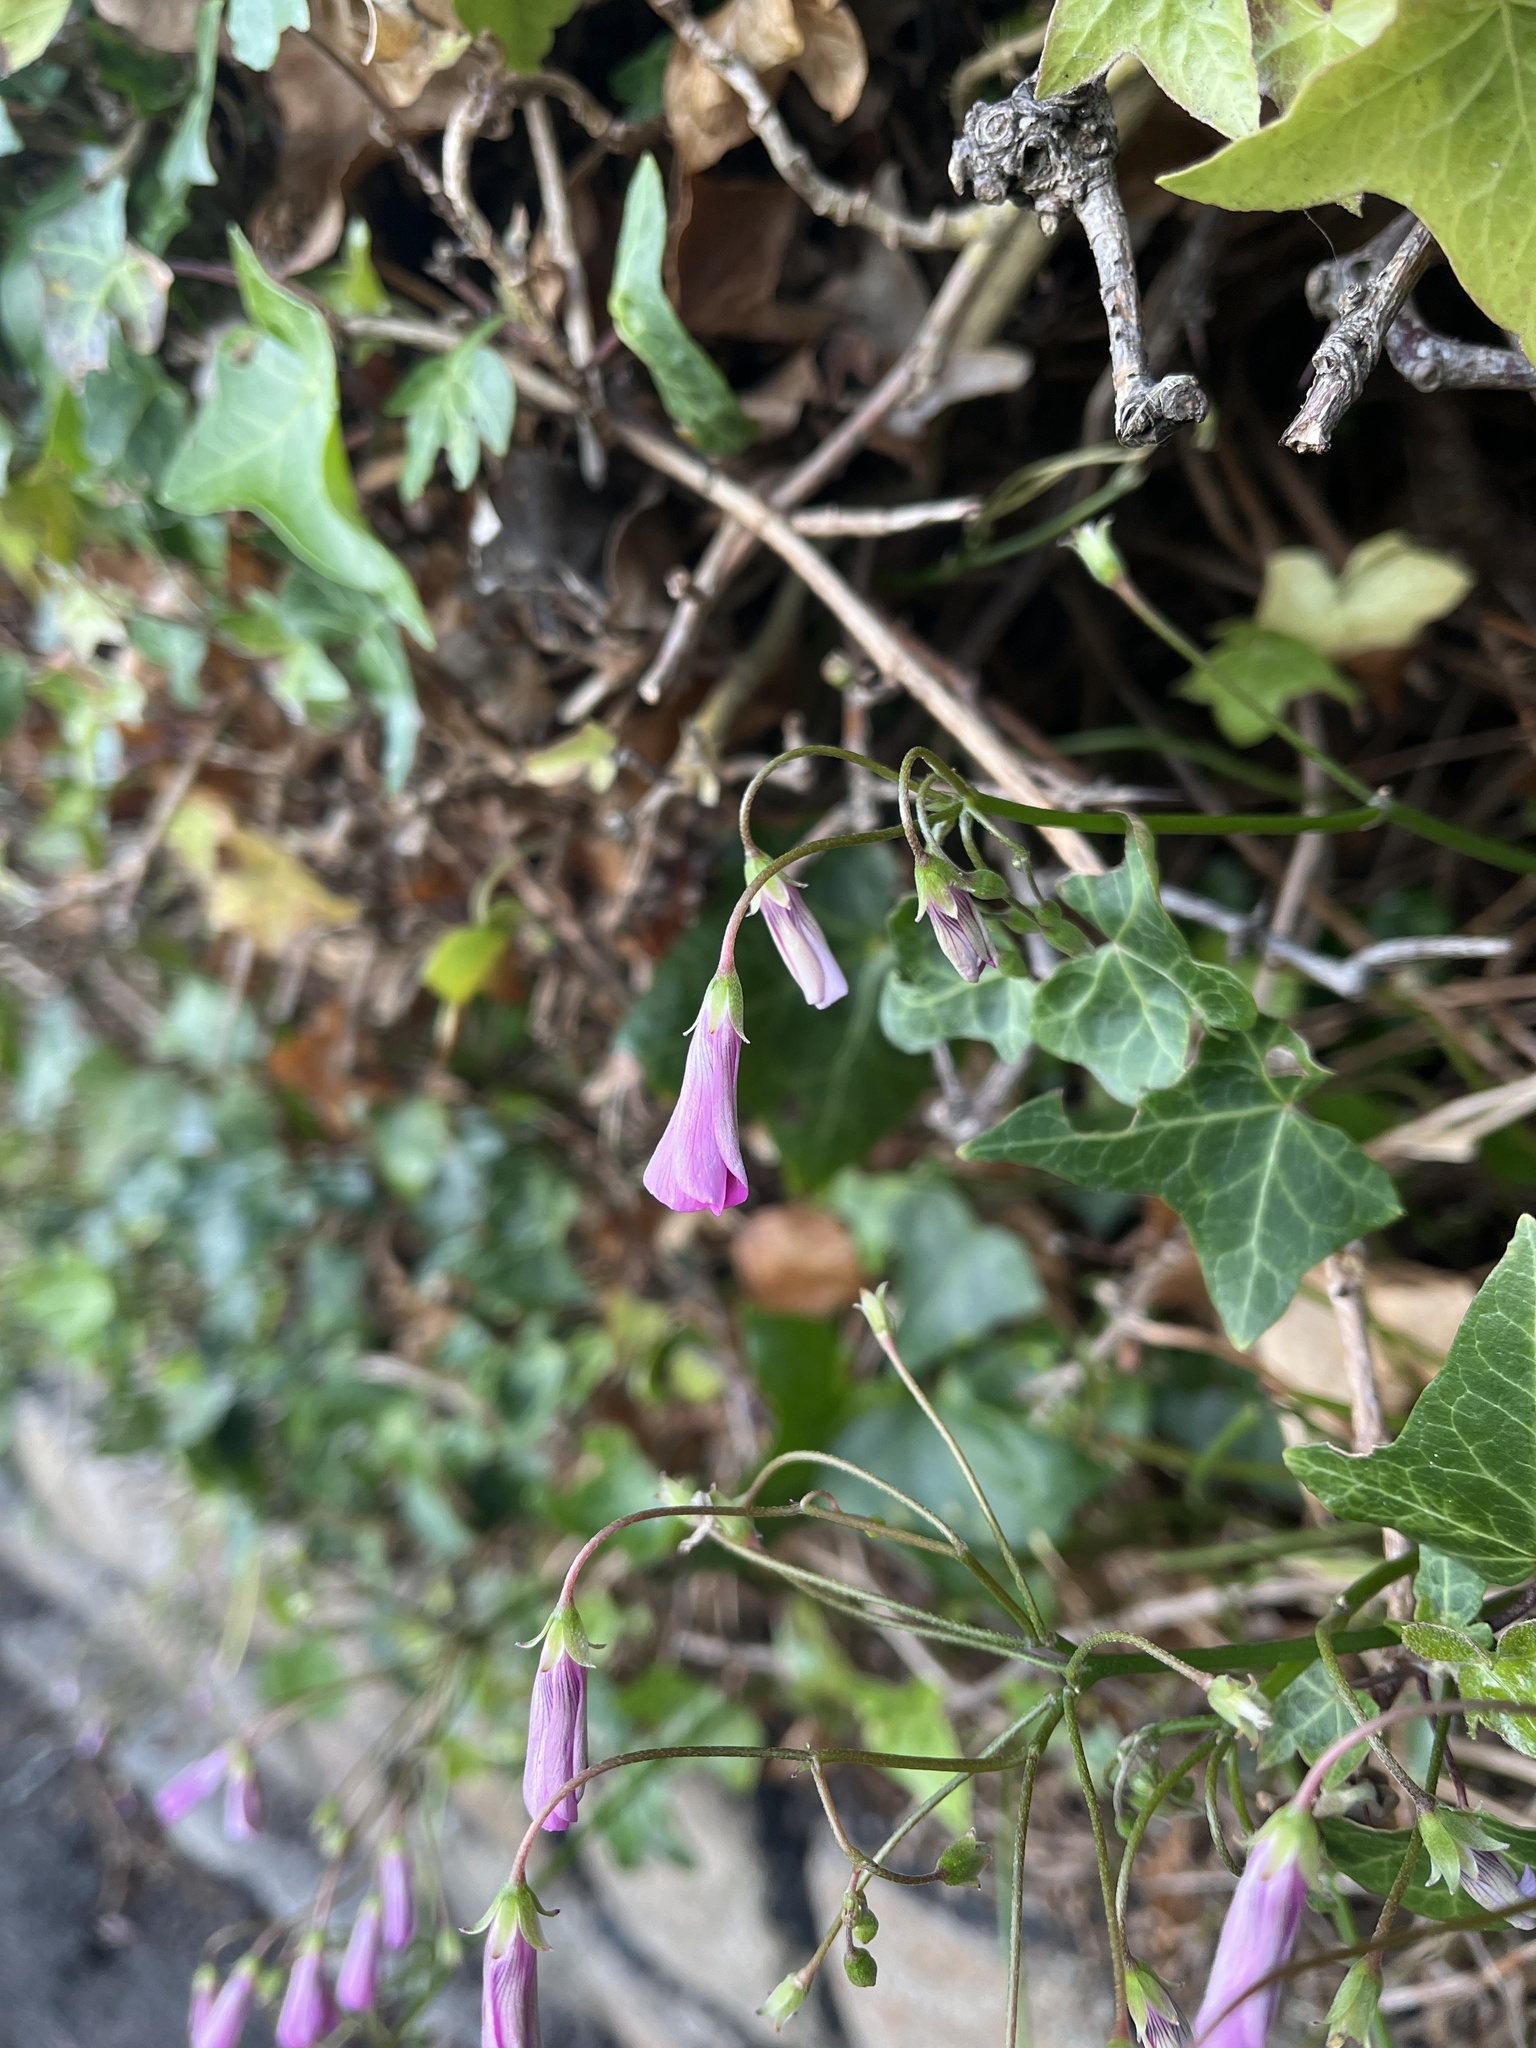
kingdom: Plantae
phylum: Tracheophyta
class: Magnoliopsida
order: Oxalidales
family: Oxalidaceae
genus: Oxalis
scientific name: Oxalis articulata
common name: Pink-sorrel
